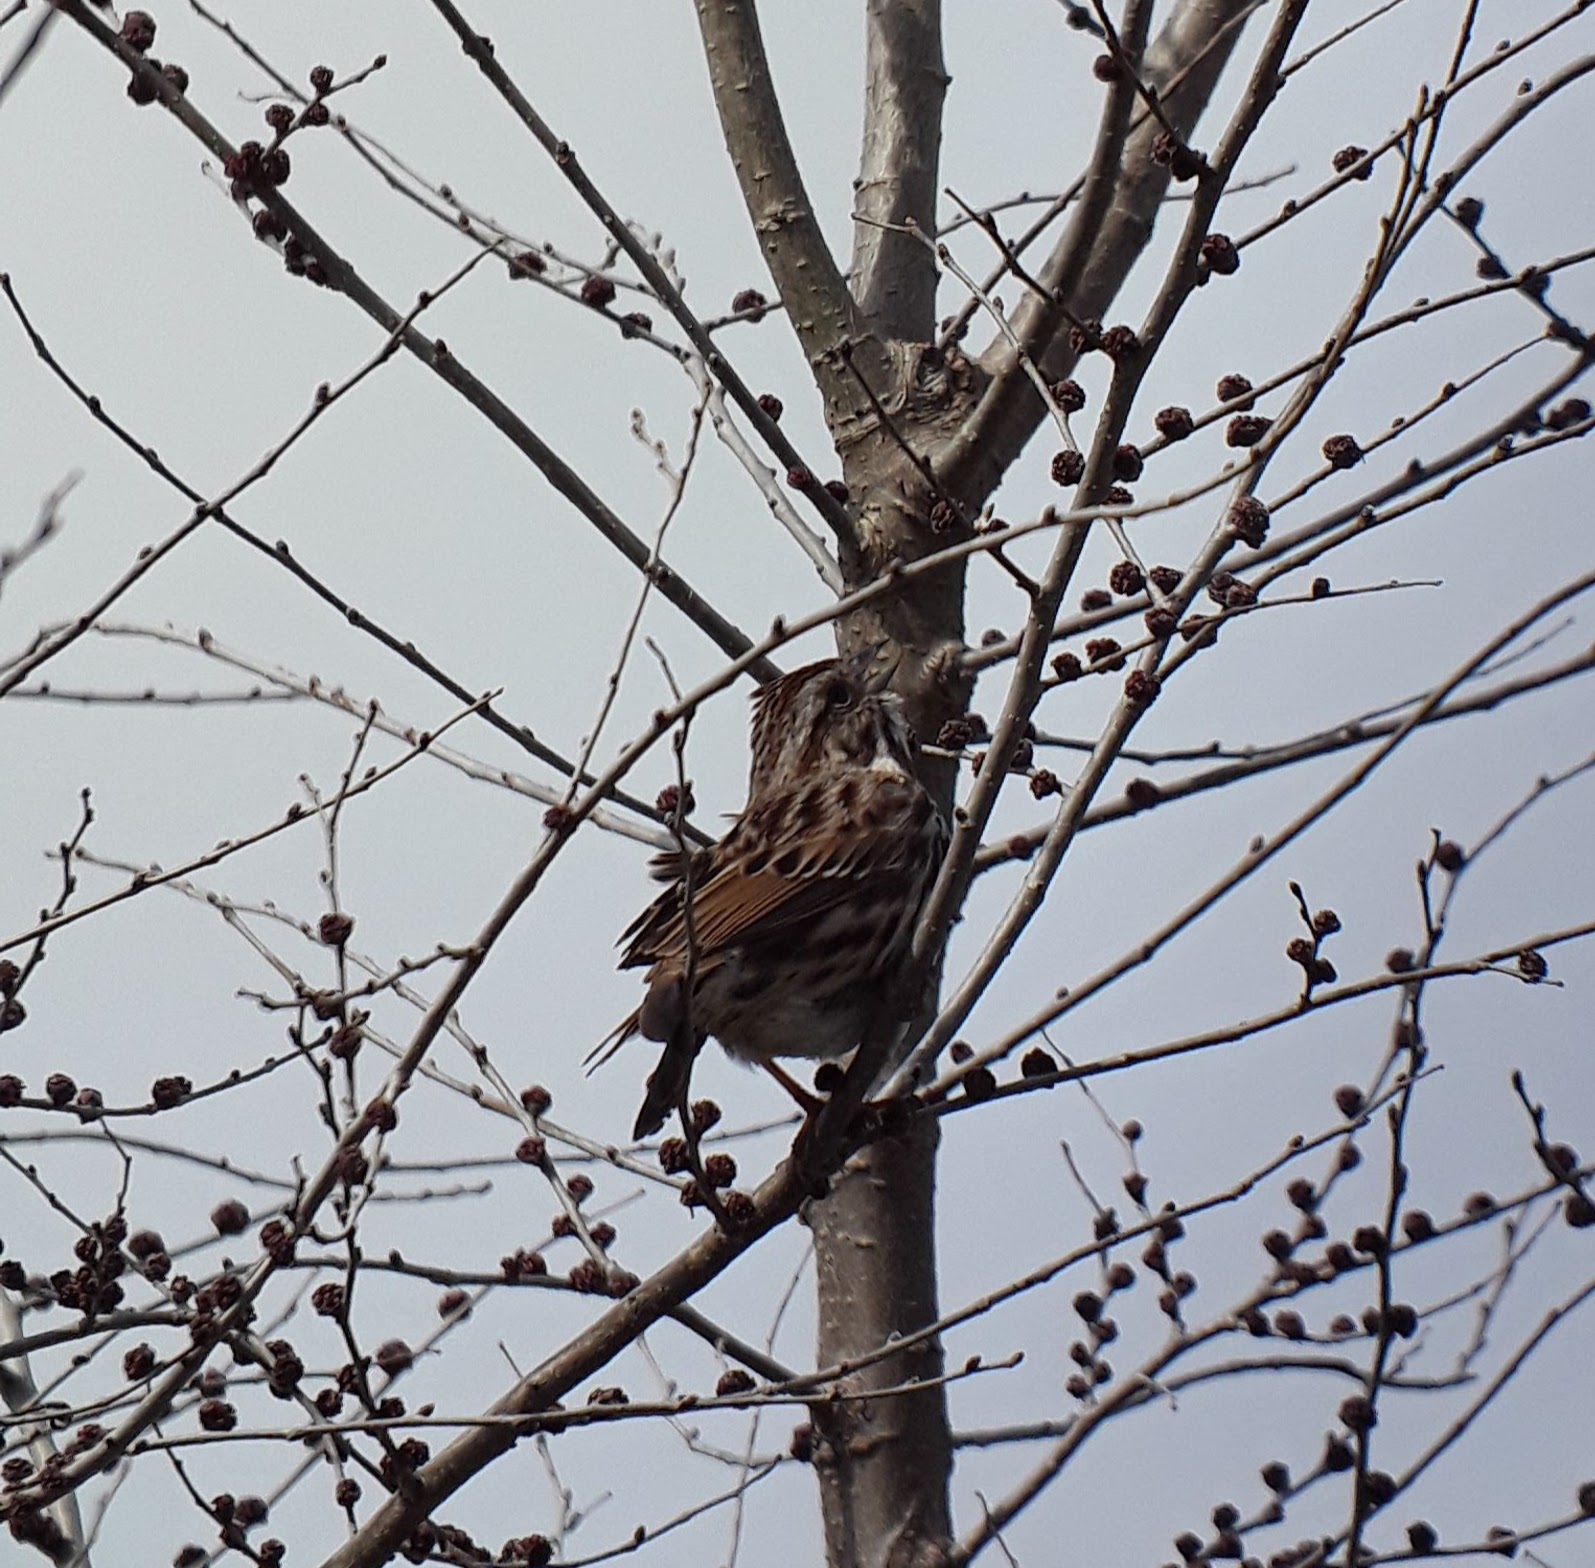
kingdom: Animalia
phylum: Chordata
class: Aves
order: Passeriformes
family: Passerellidae
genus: Melospiza
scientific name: Melospiza melodia
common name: Song sparrow
